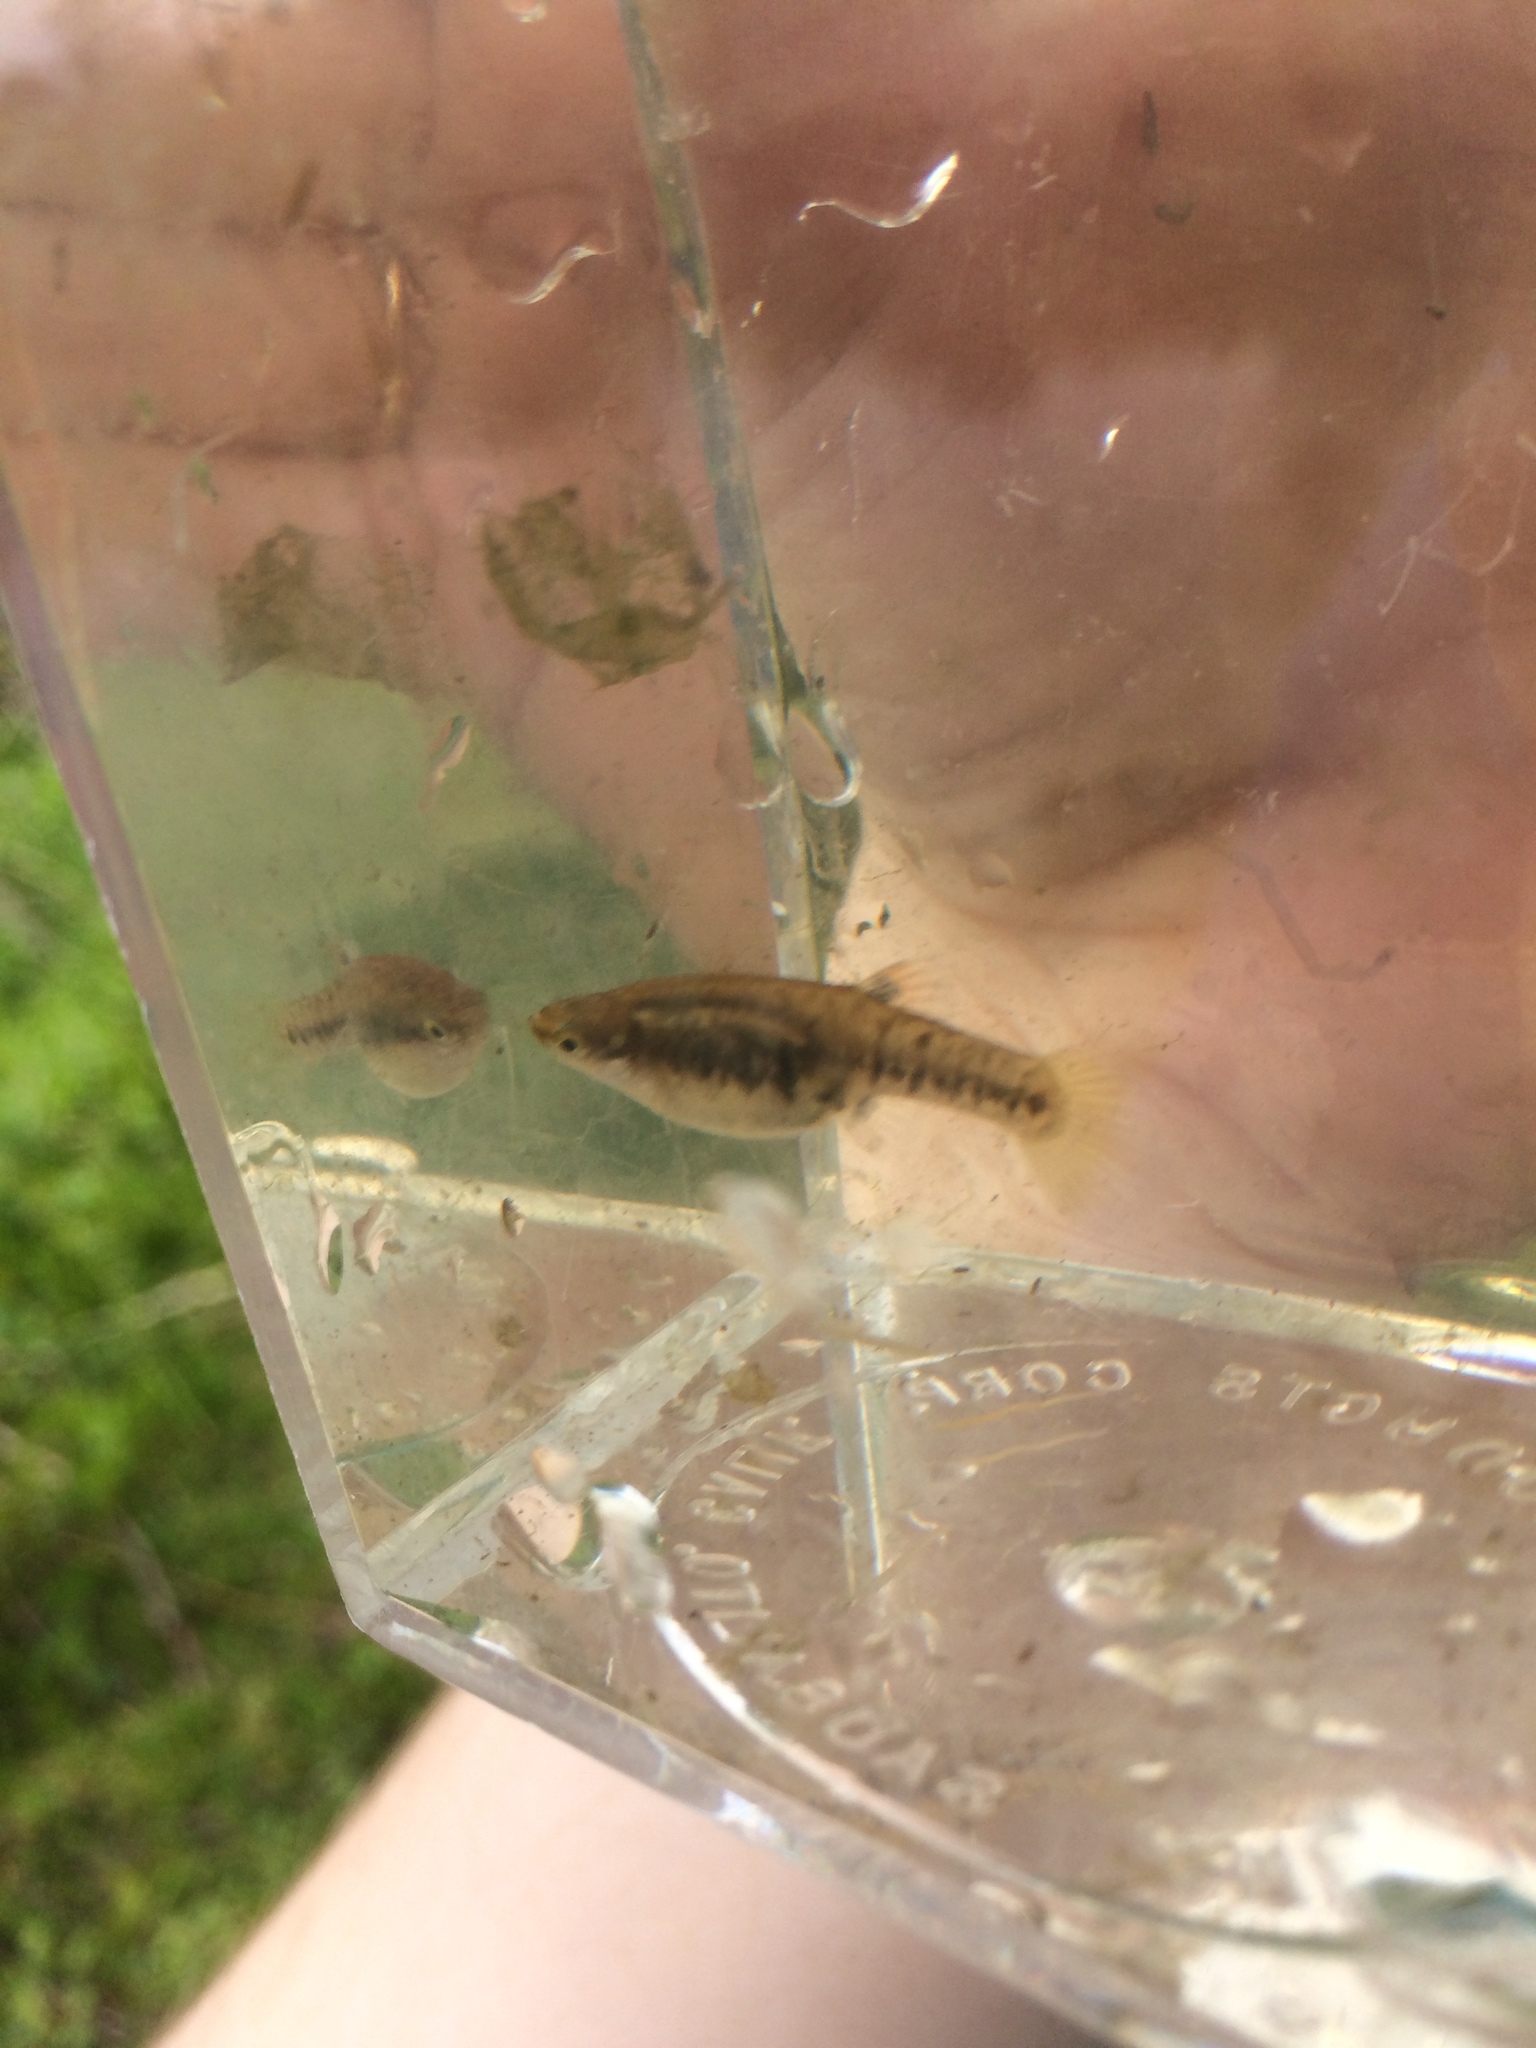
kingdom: Animalia
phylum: Chordata
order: Cyprinodontiformes
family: Poeciliidae
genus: Heterandria
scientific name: Heterandria formosa
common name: Least killifish
